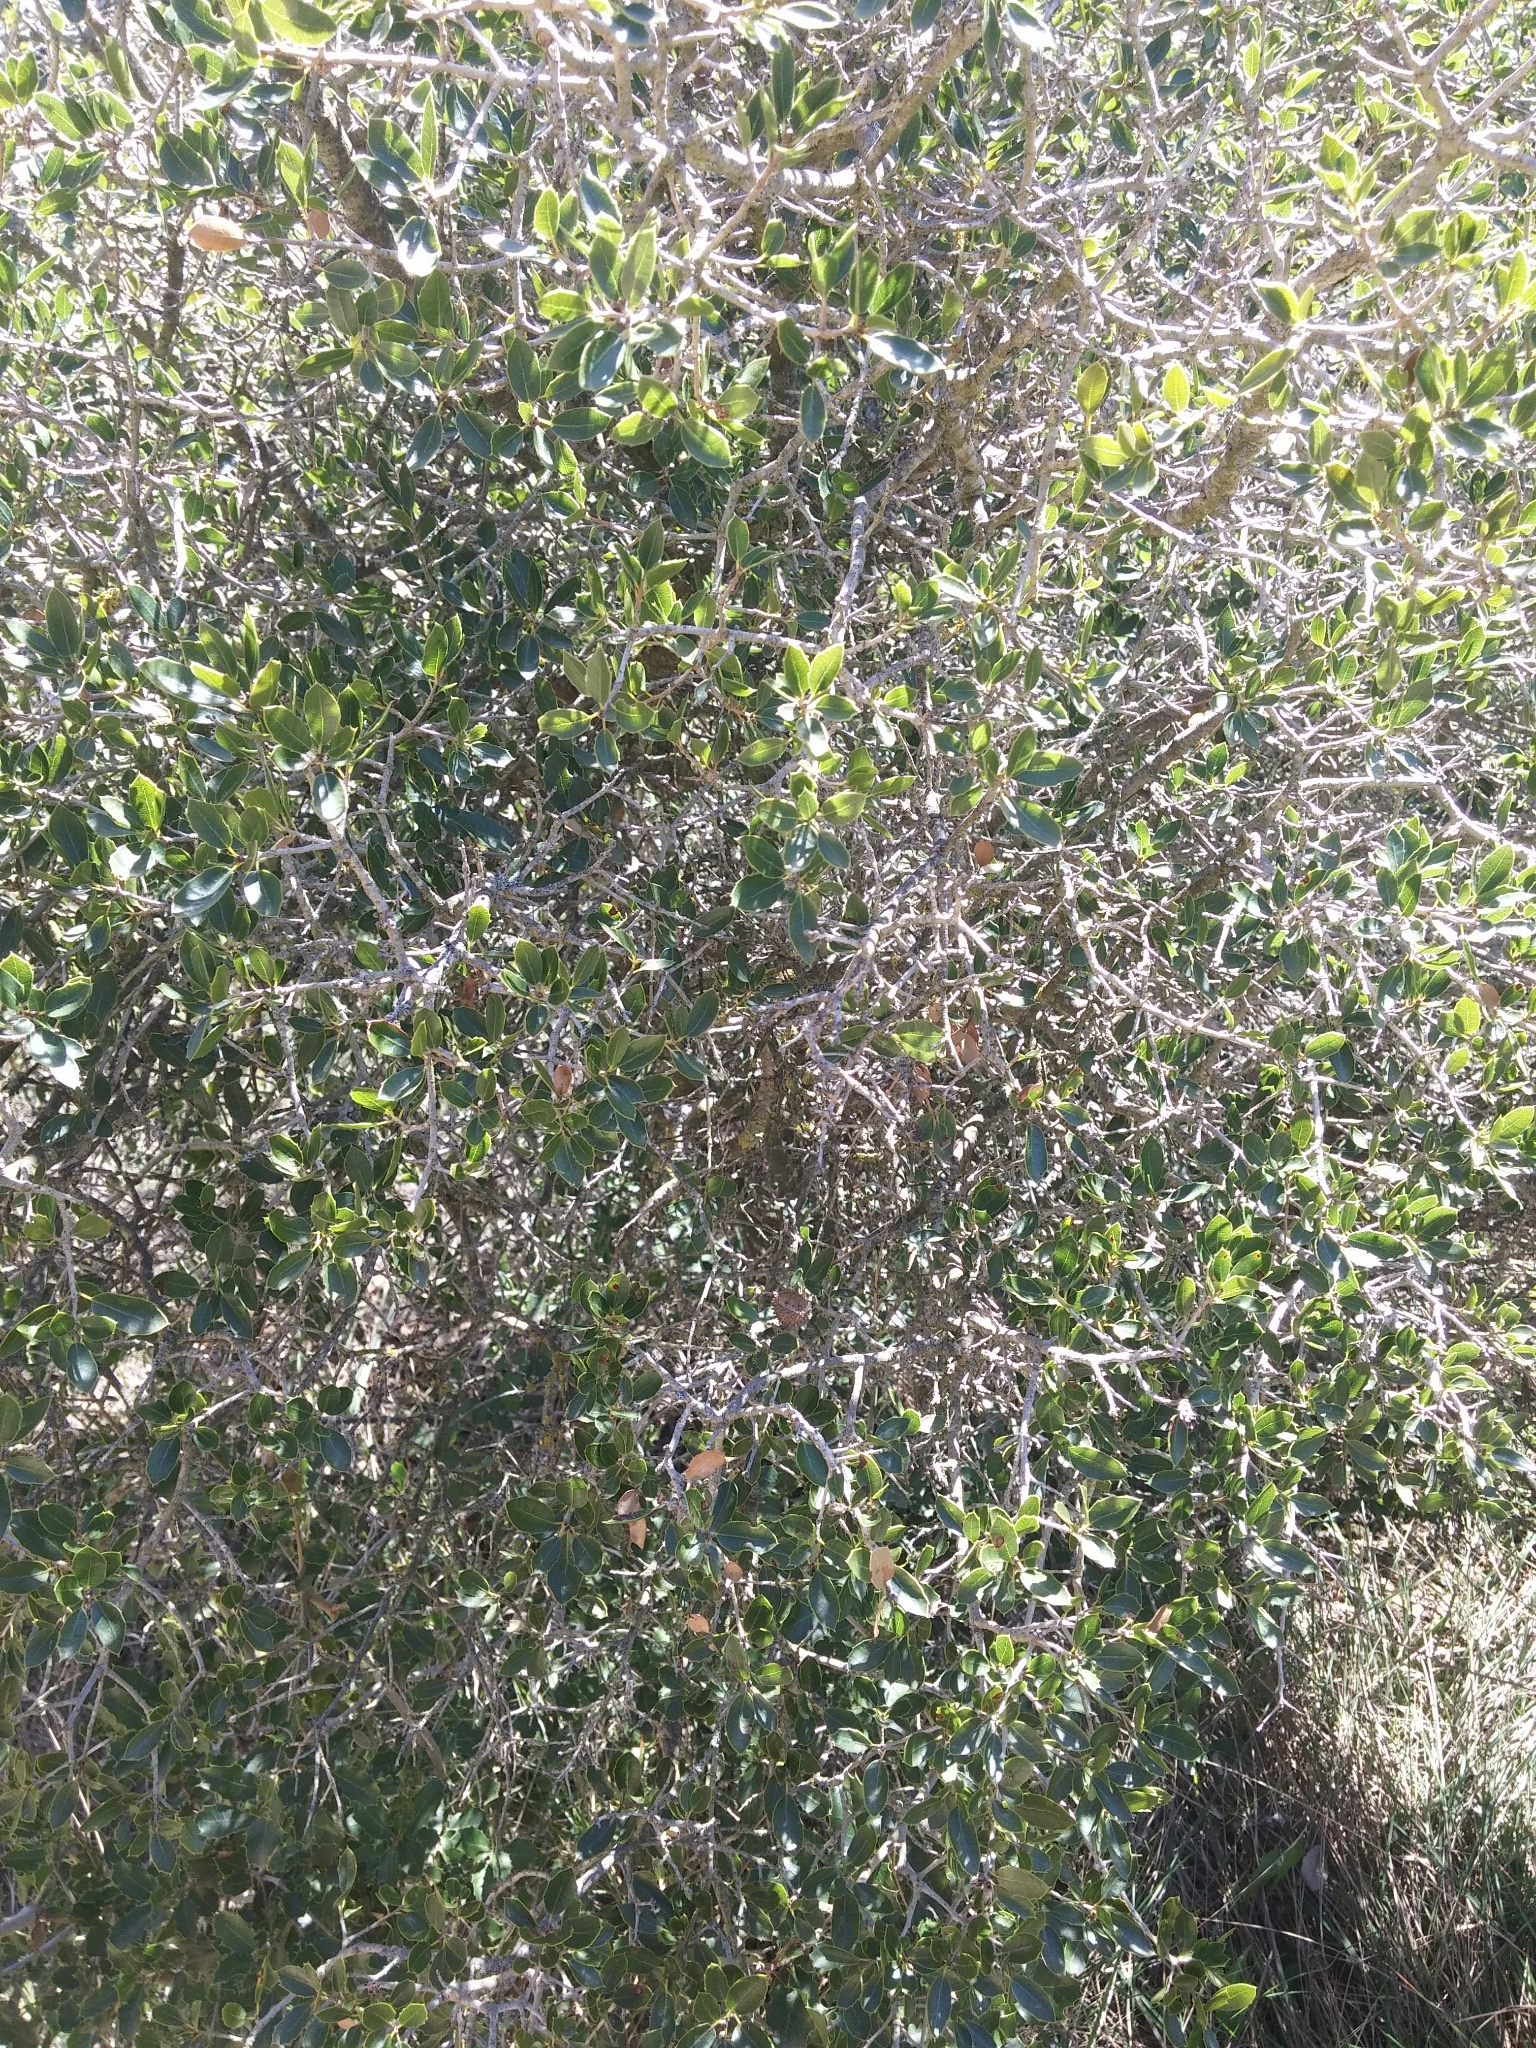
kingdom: Plantae
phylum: Tracheophyta
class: Magnoliopsida
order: Fagales
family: Fagaceae
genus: Quercus
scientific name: Quercus coccifera
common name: Kermes oak
